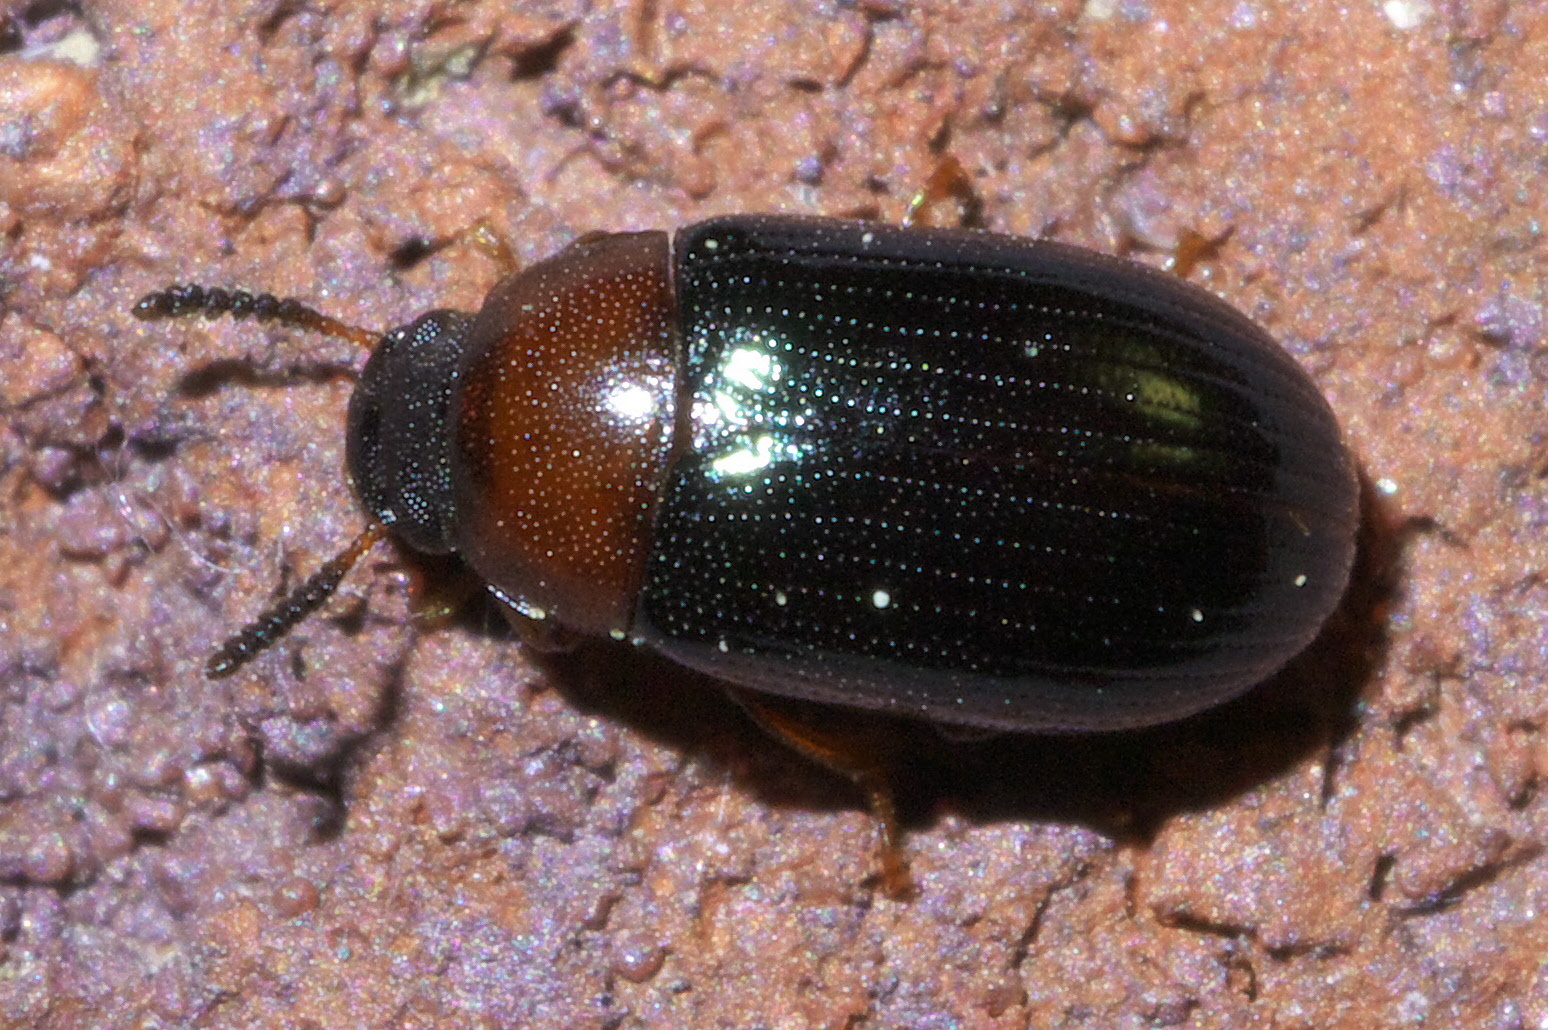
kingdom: Animalia
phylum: Arthropoda
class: Insecta
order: Coleoptera
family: Tenebrionidae
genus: Neomida
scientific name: Neomida bicornis
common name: Two-horned darkling beetle
